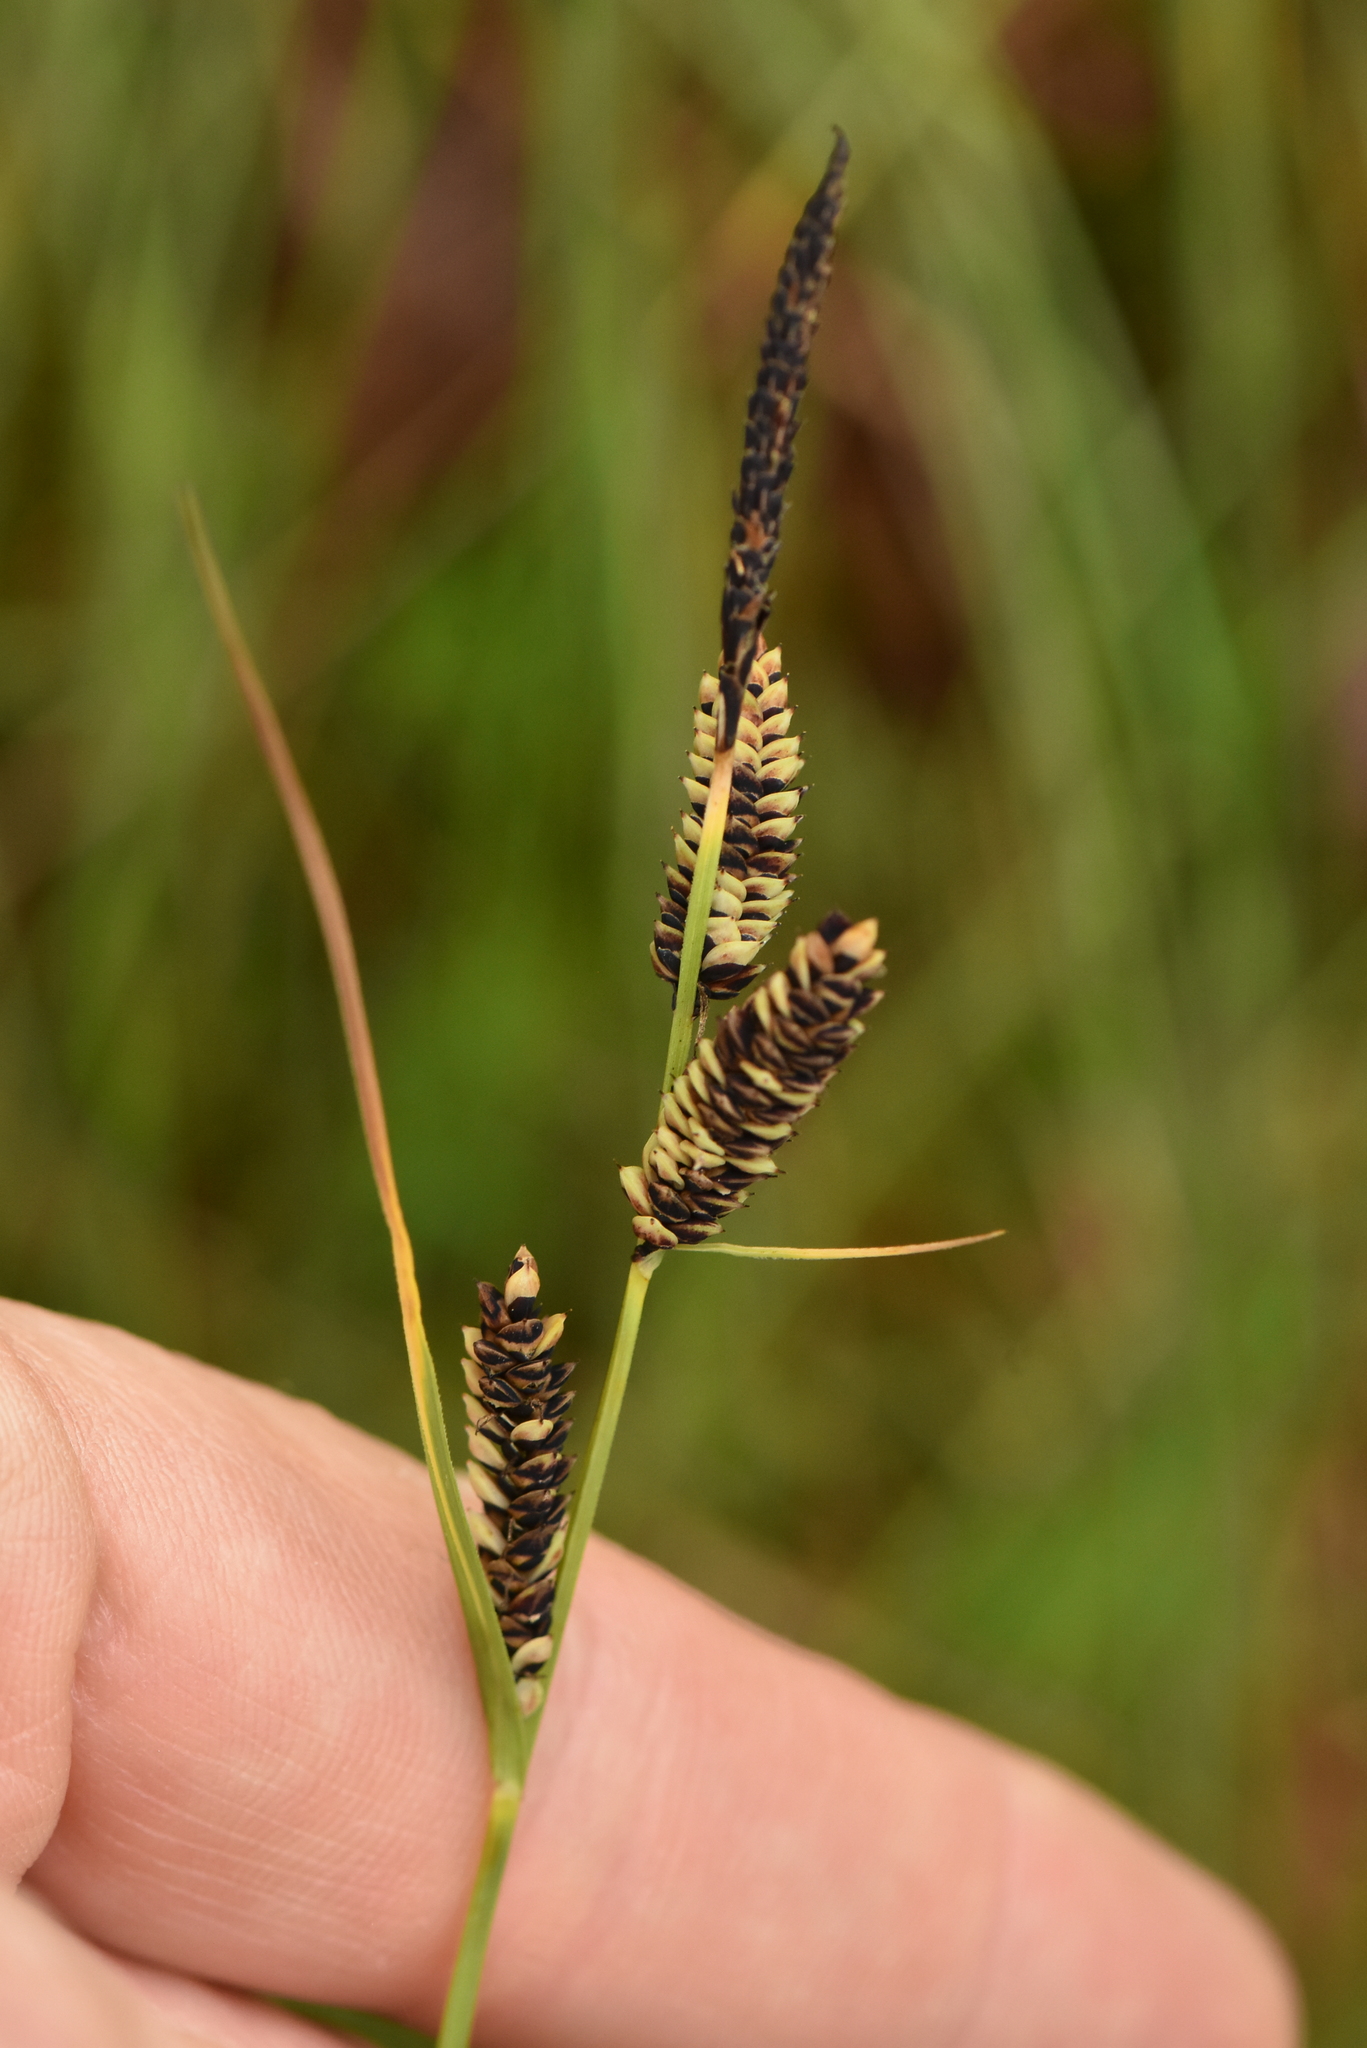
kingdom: Plantae
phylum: Tracheophyta
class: Liliopsida
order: Poales
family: Cyperaceae
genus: Carex
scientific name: Carex nigra
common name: Common sedge
